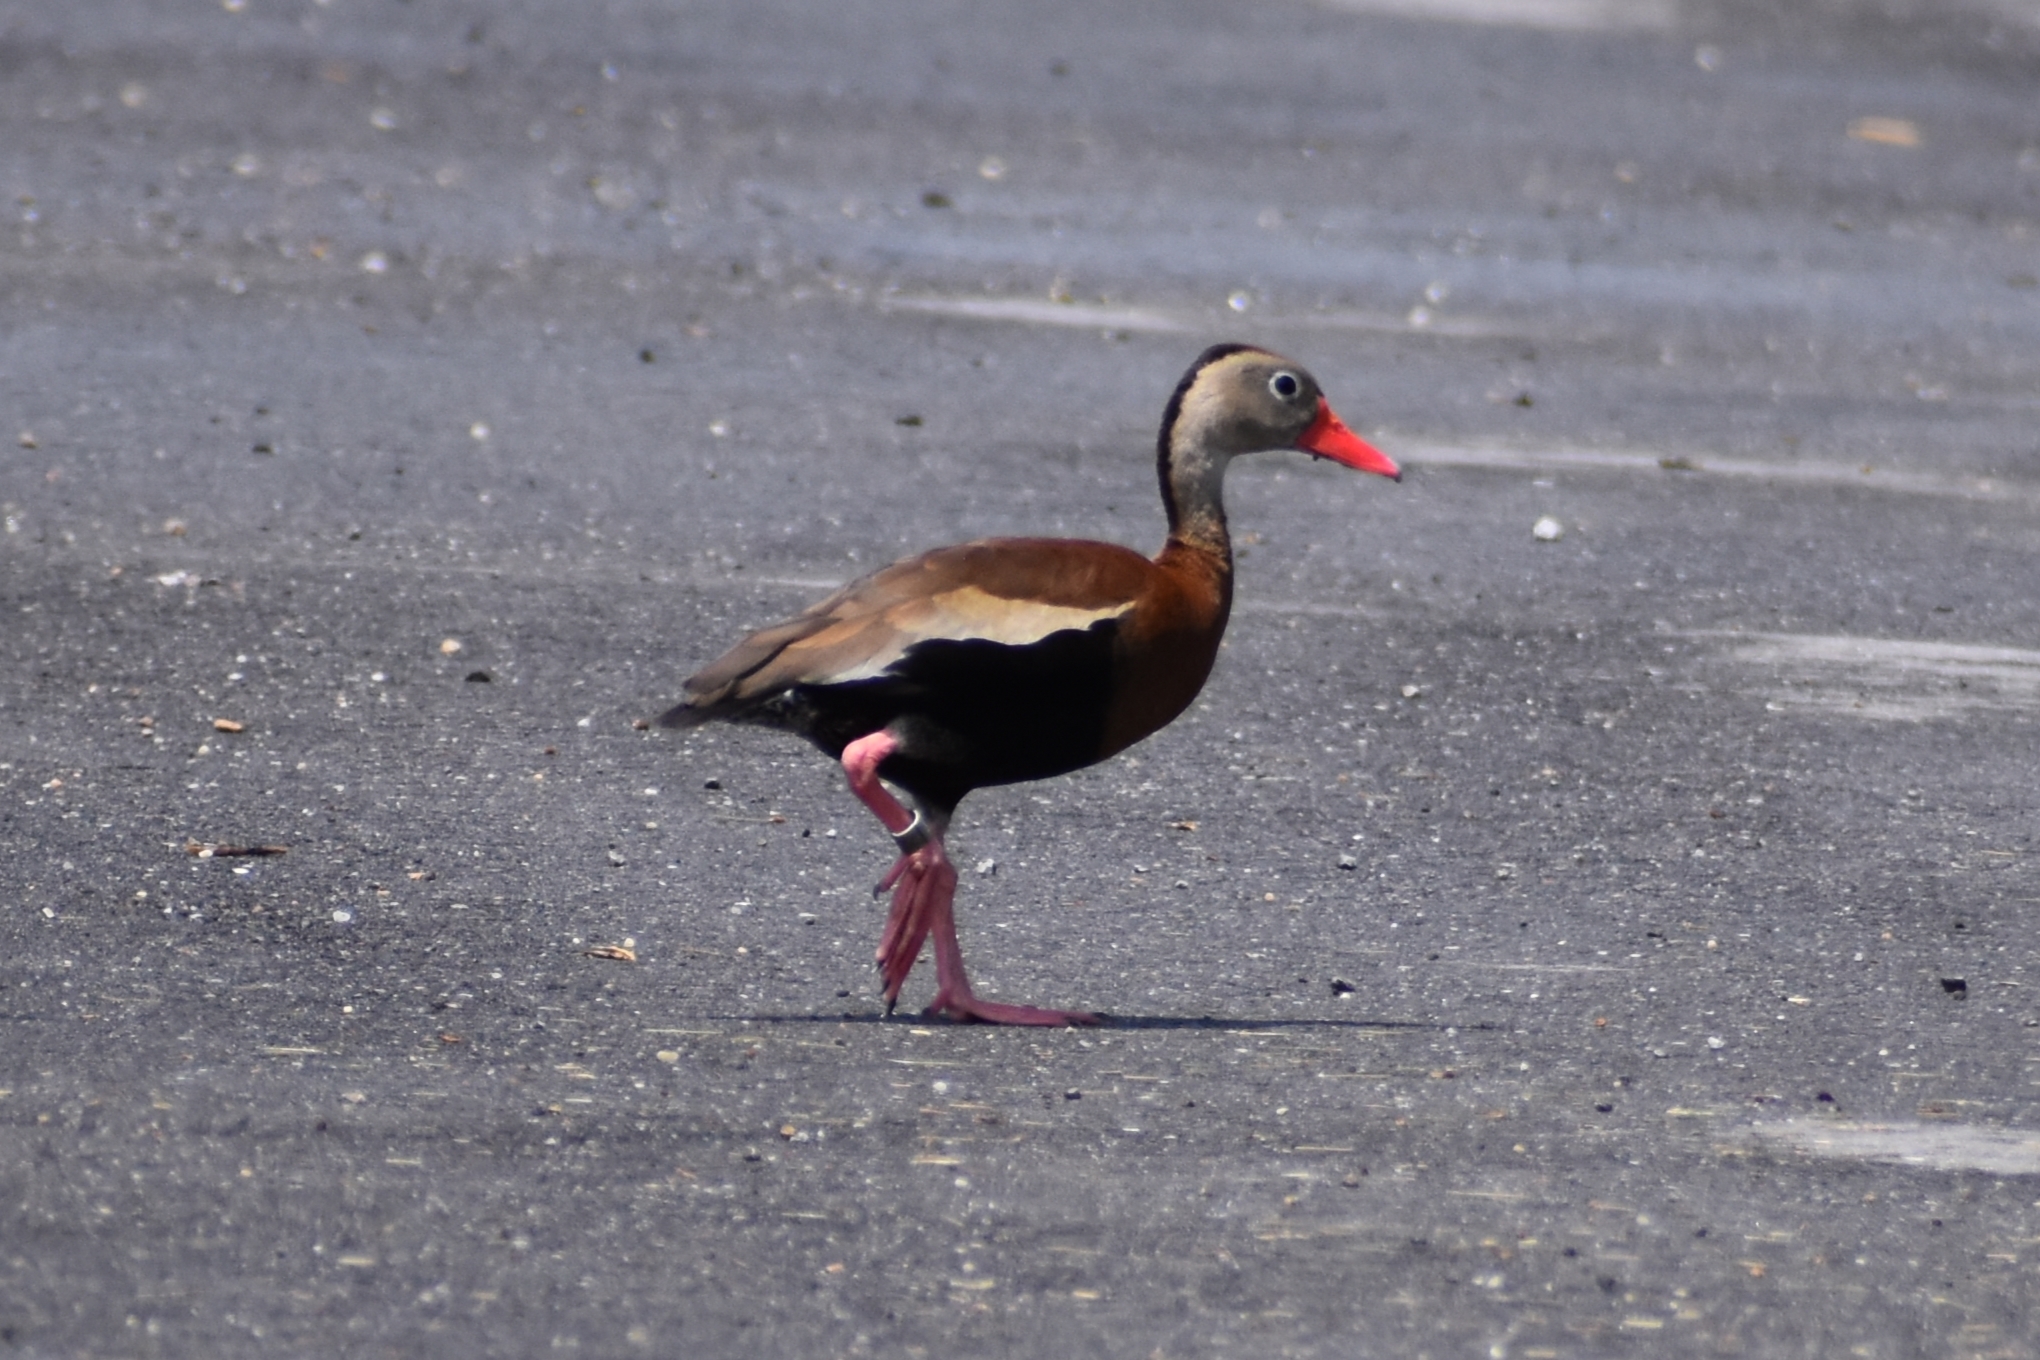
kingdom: Animalia
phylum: Chordata
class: Aves
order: Anseriformes
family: Anatidae
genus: Dendrocygna
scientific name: Dendrocygna autumnalis
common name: Black-bellied whistling duck
